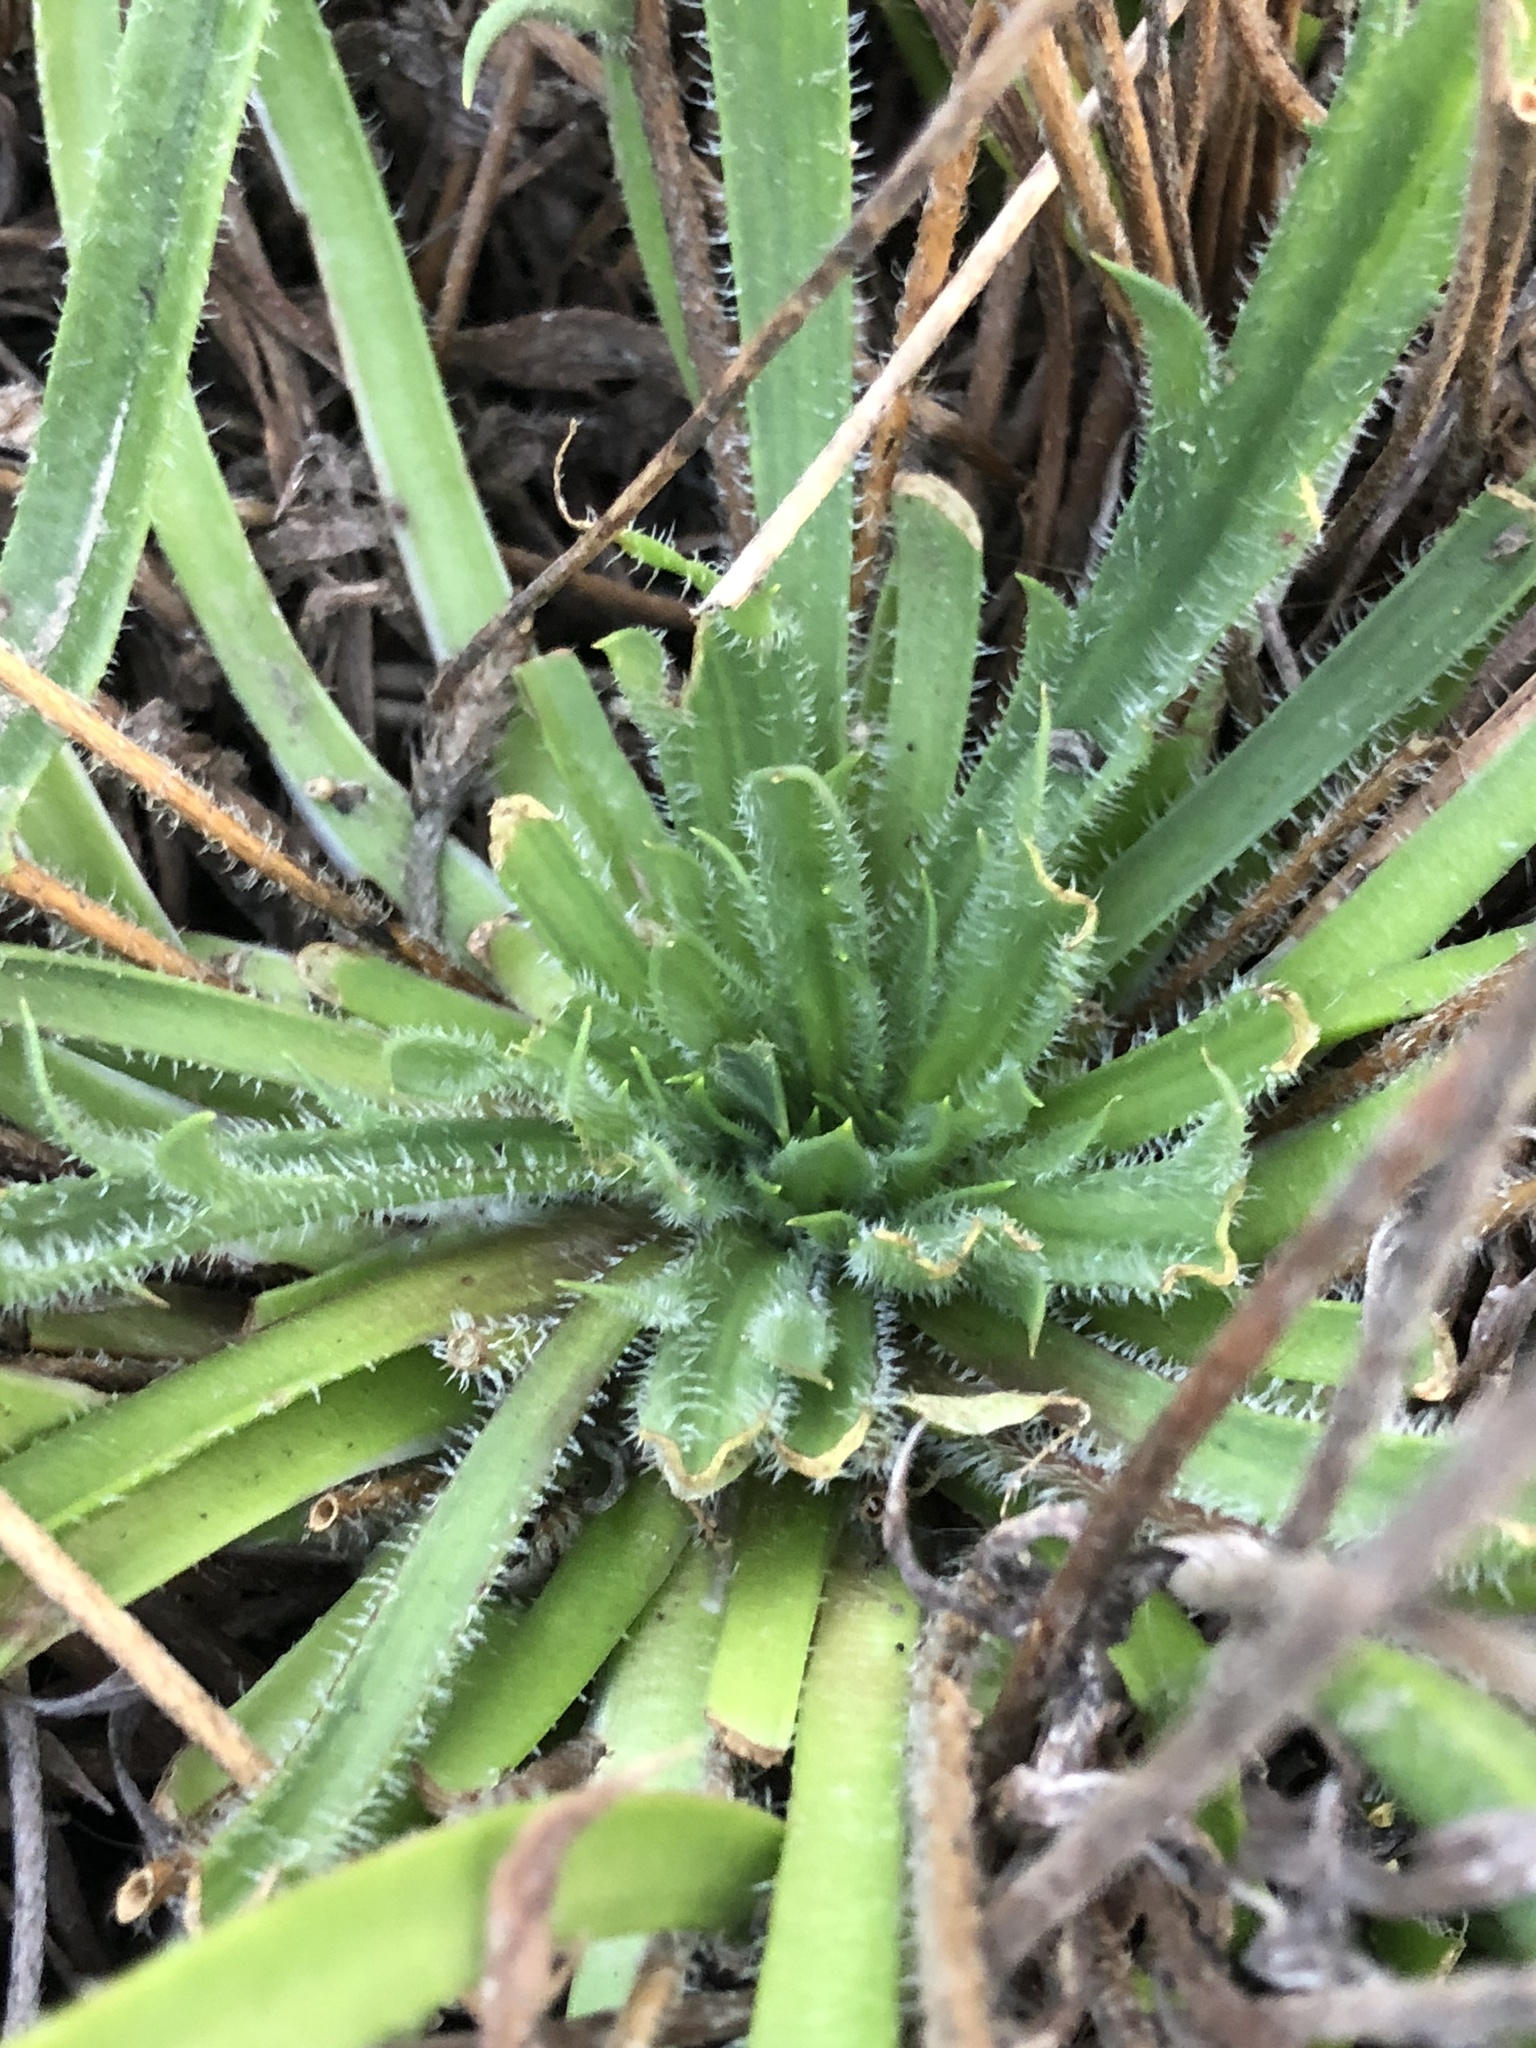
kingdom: Plantae
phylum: Tracheophyta
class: Magnoliopsida
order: Lamiales
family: Plantaginaceae
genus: Plantago
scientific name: Plantago coronopus
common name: Buck's-horn plantain
